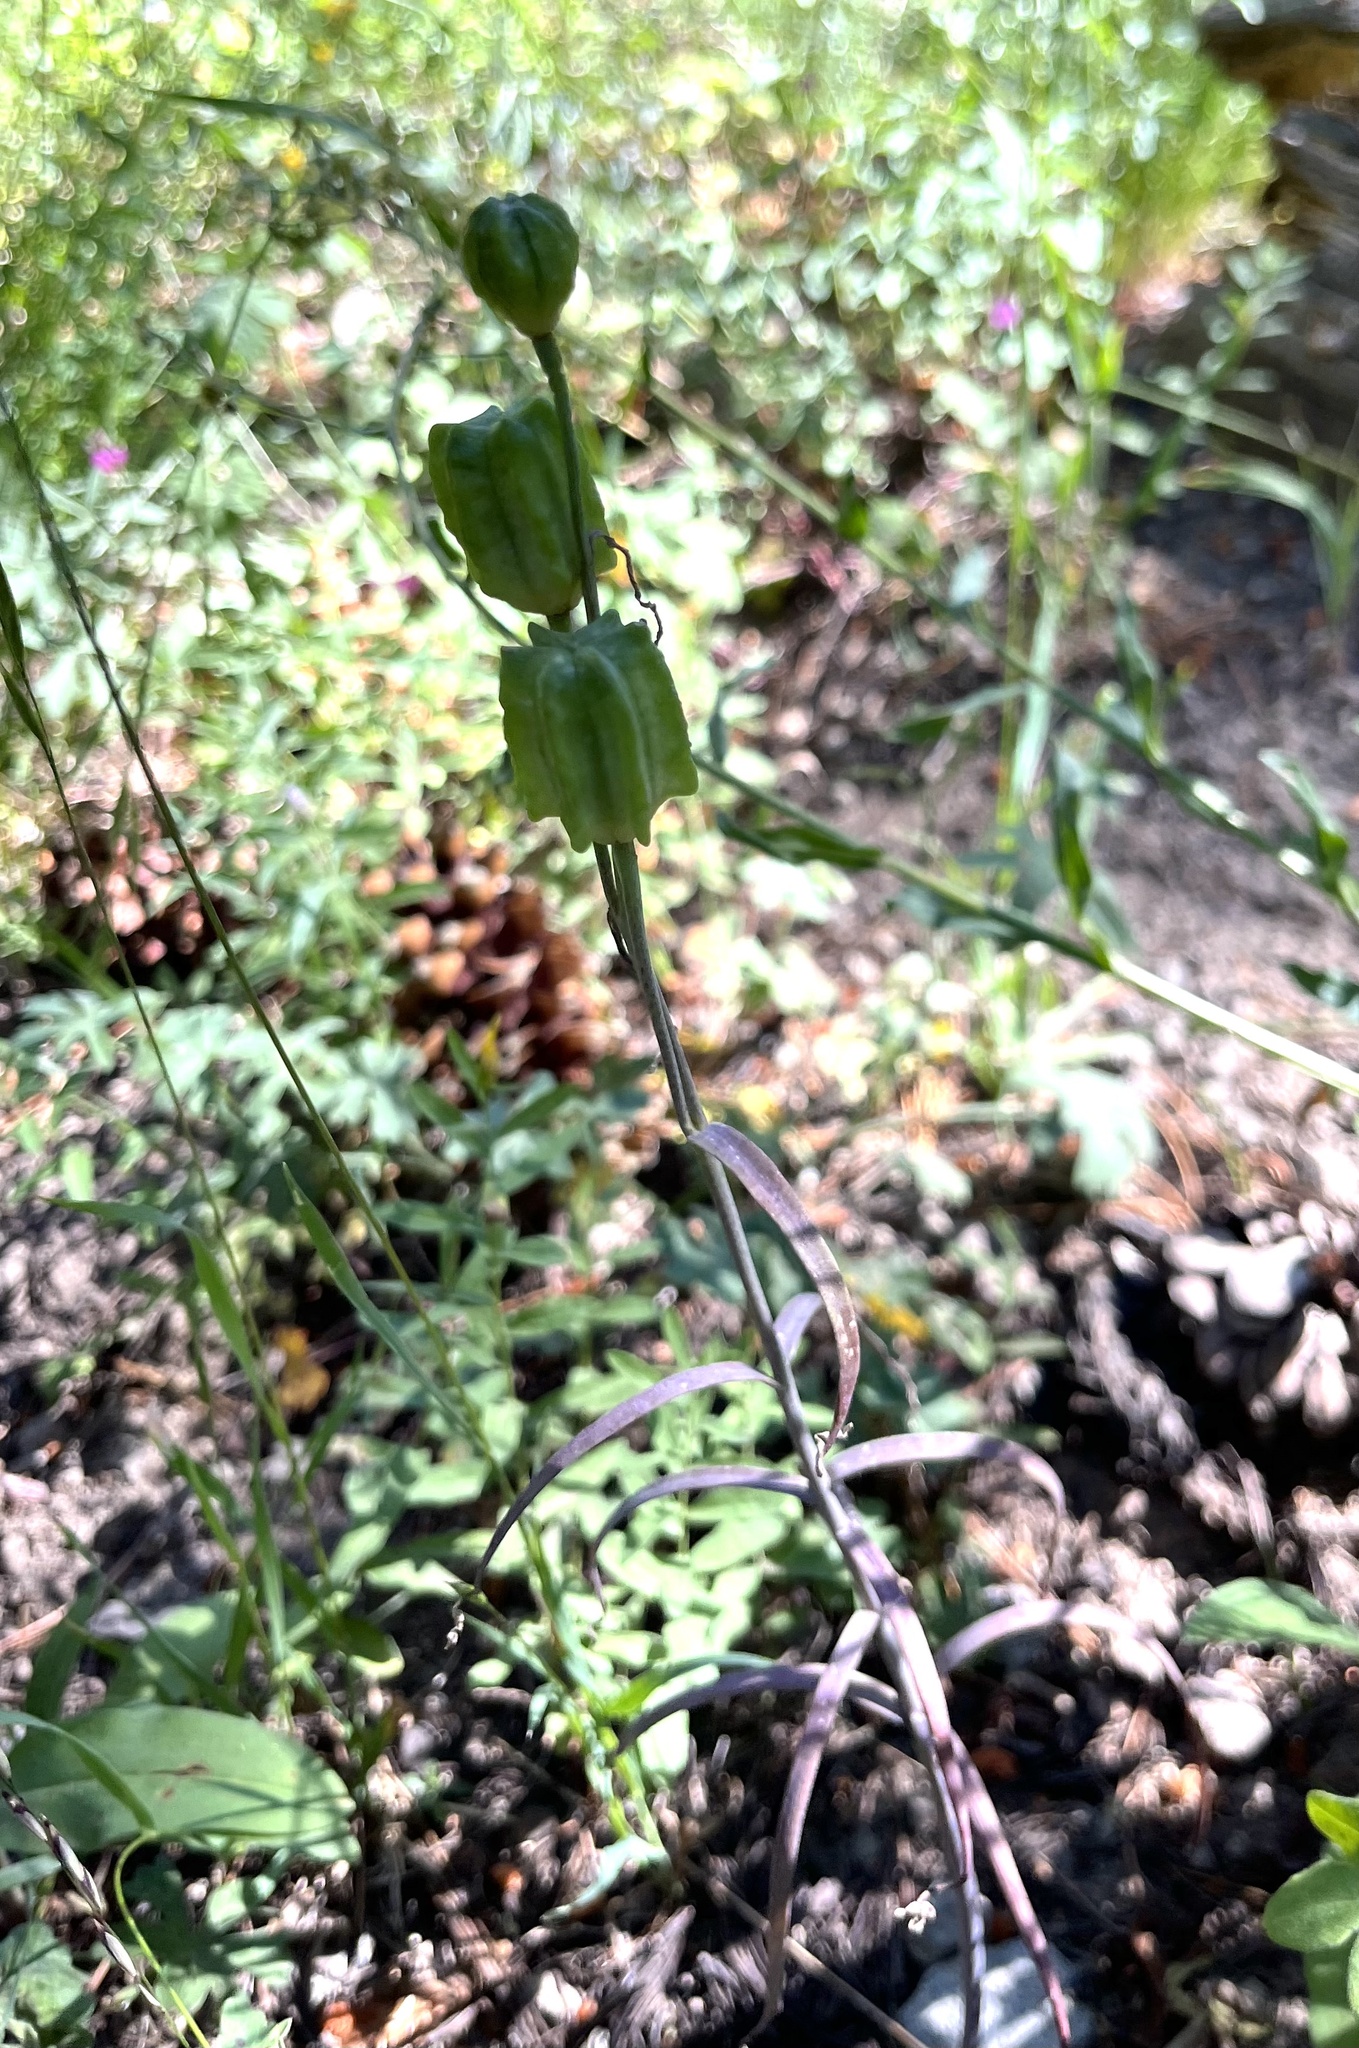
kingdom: Plantae
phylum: Tracheophyta
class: Liliopsida
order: Liliales
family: Liliaceae
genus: Fritillaria
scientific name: Fritillaria atropurpurea
